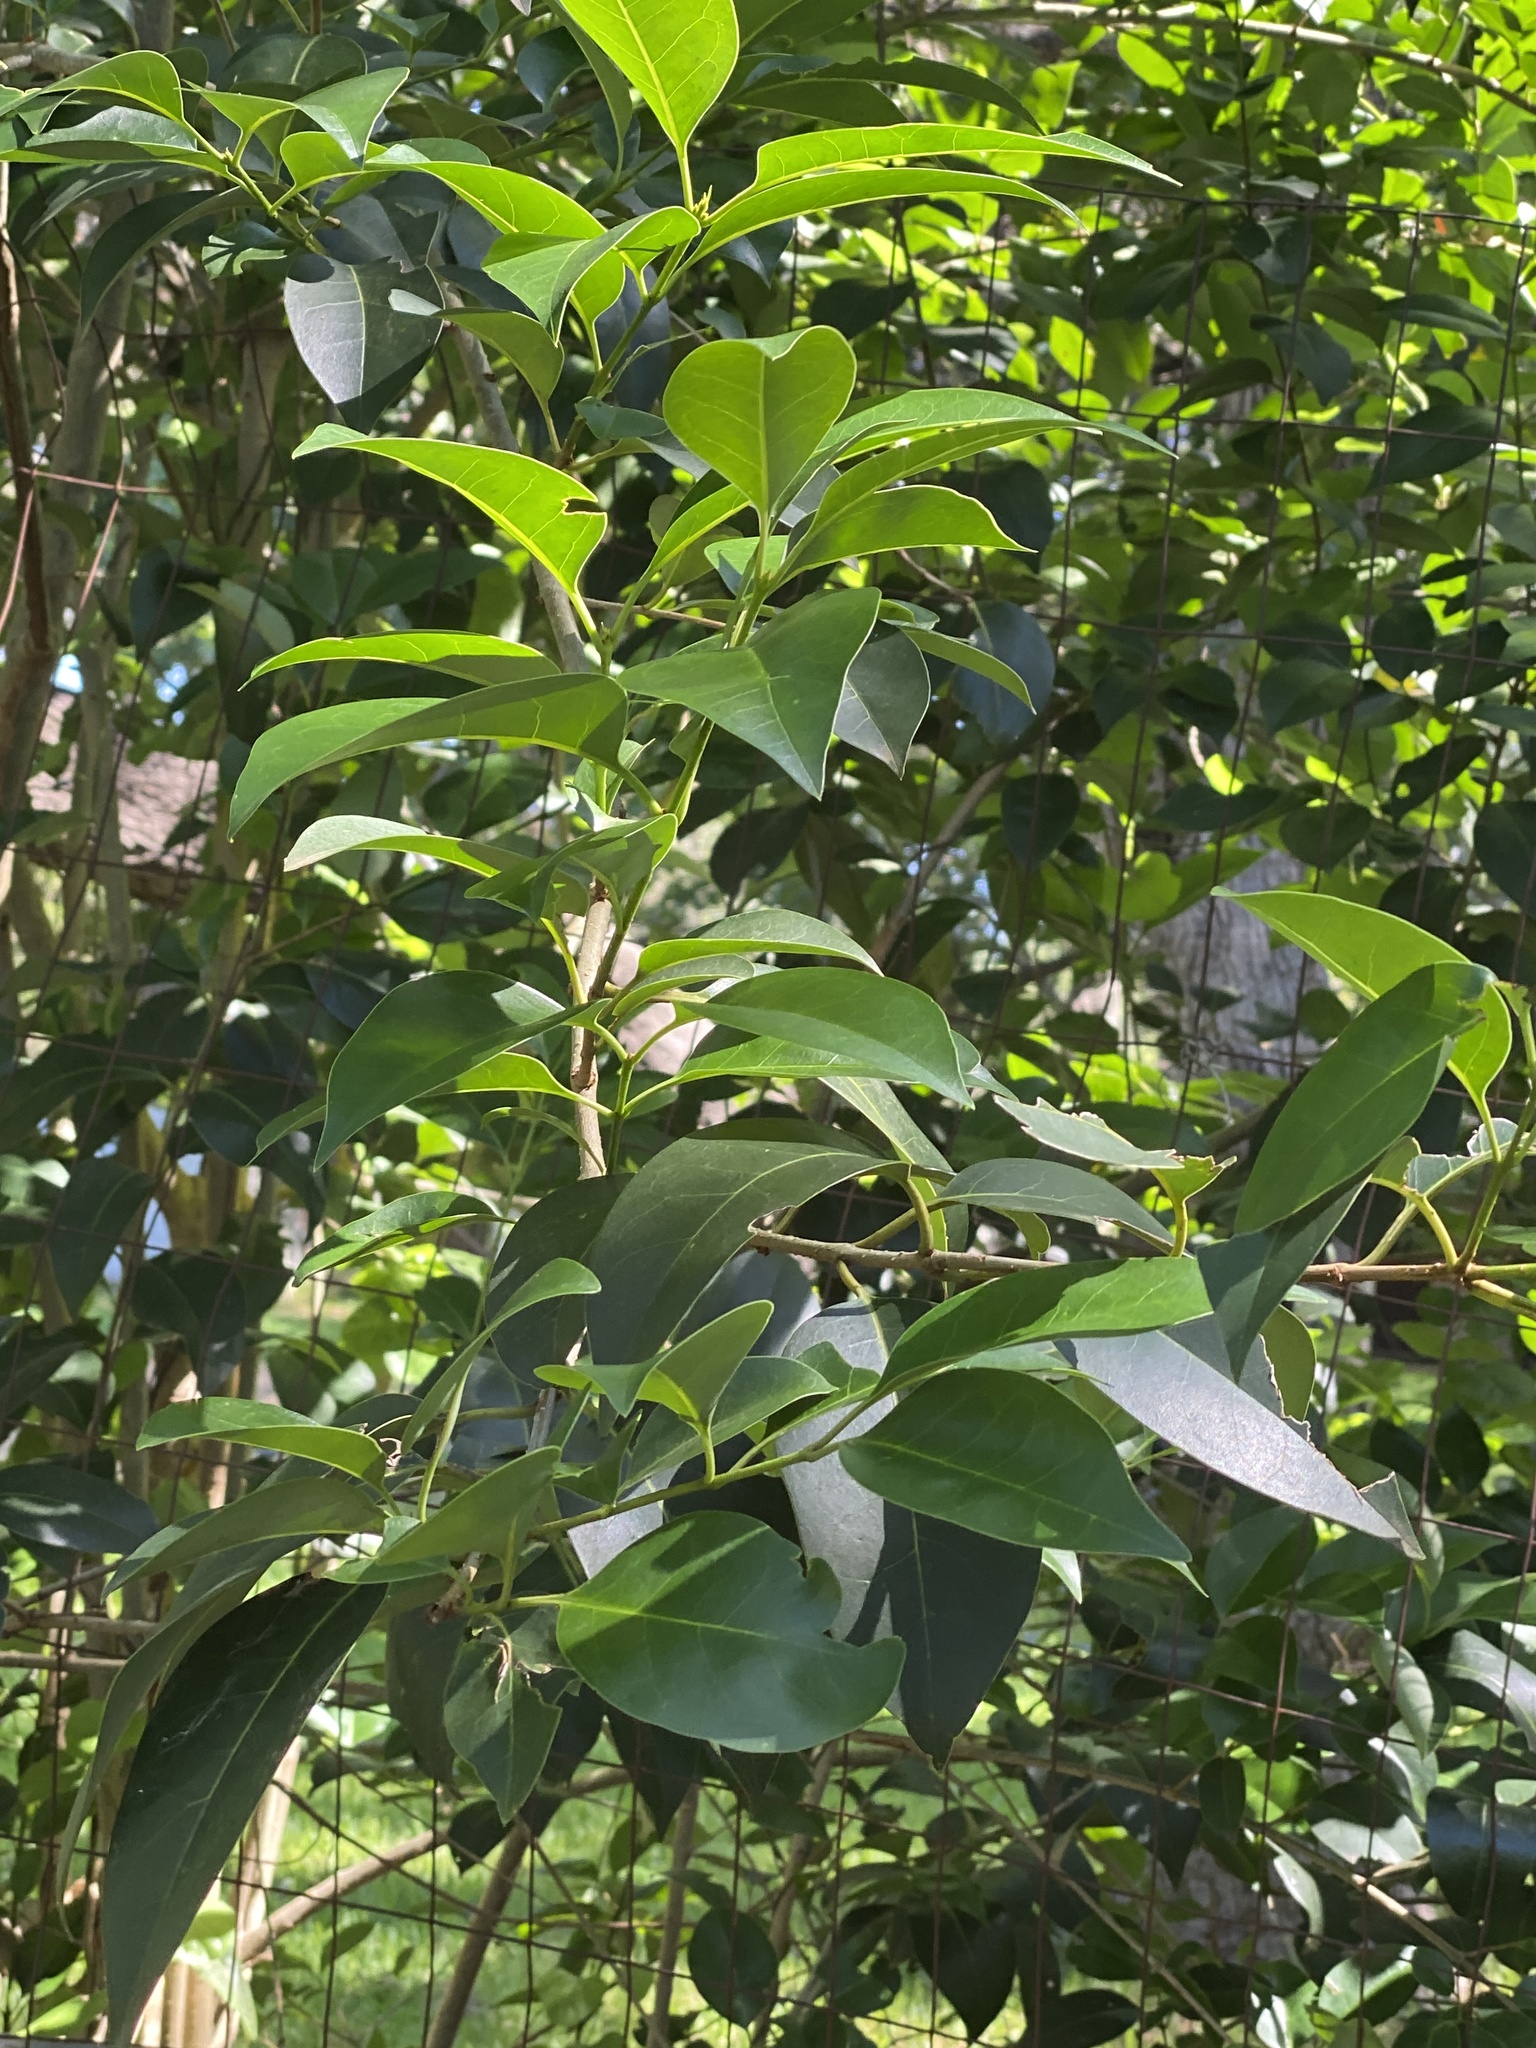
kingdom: Plantae
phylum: Tracheophyta
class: Magnoliopsida
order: Lamiales
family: Oleaceae
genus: Ligustrum
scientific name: Ligustrum lucidum
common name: Glossy privet
